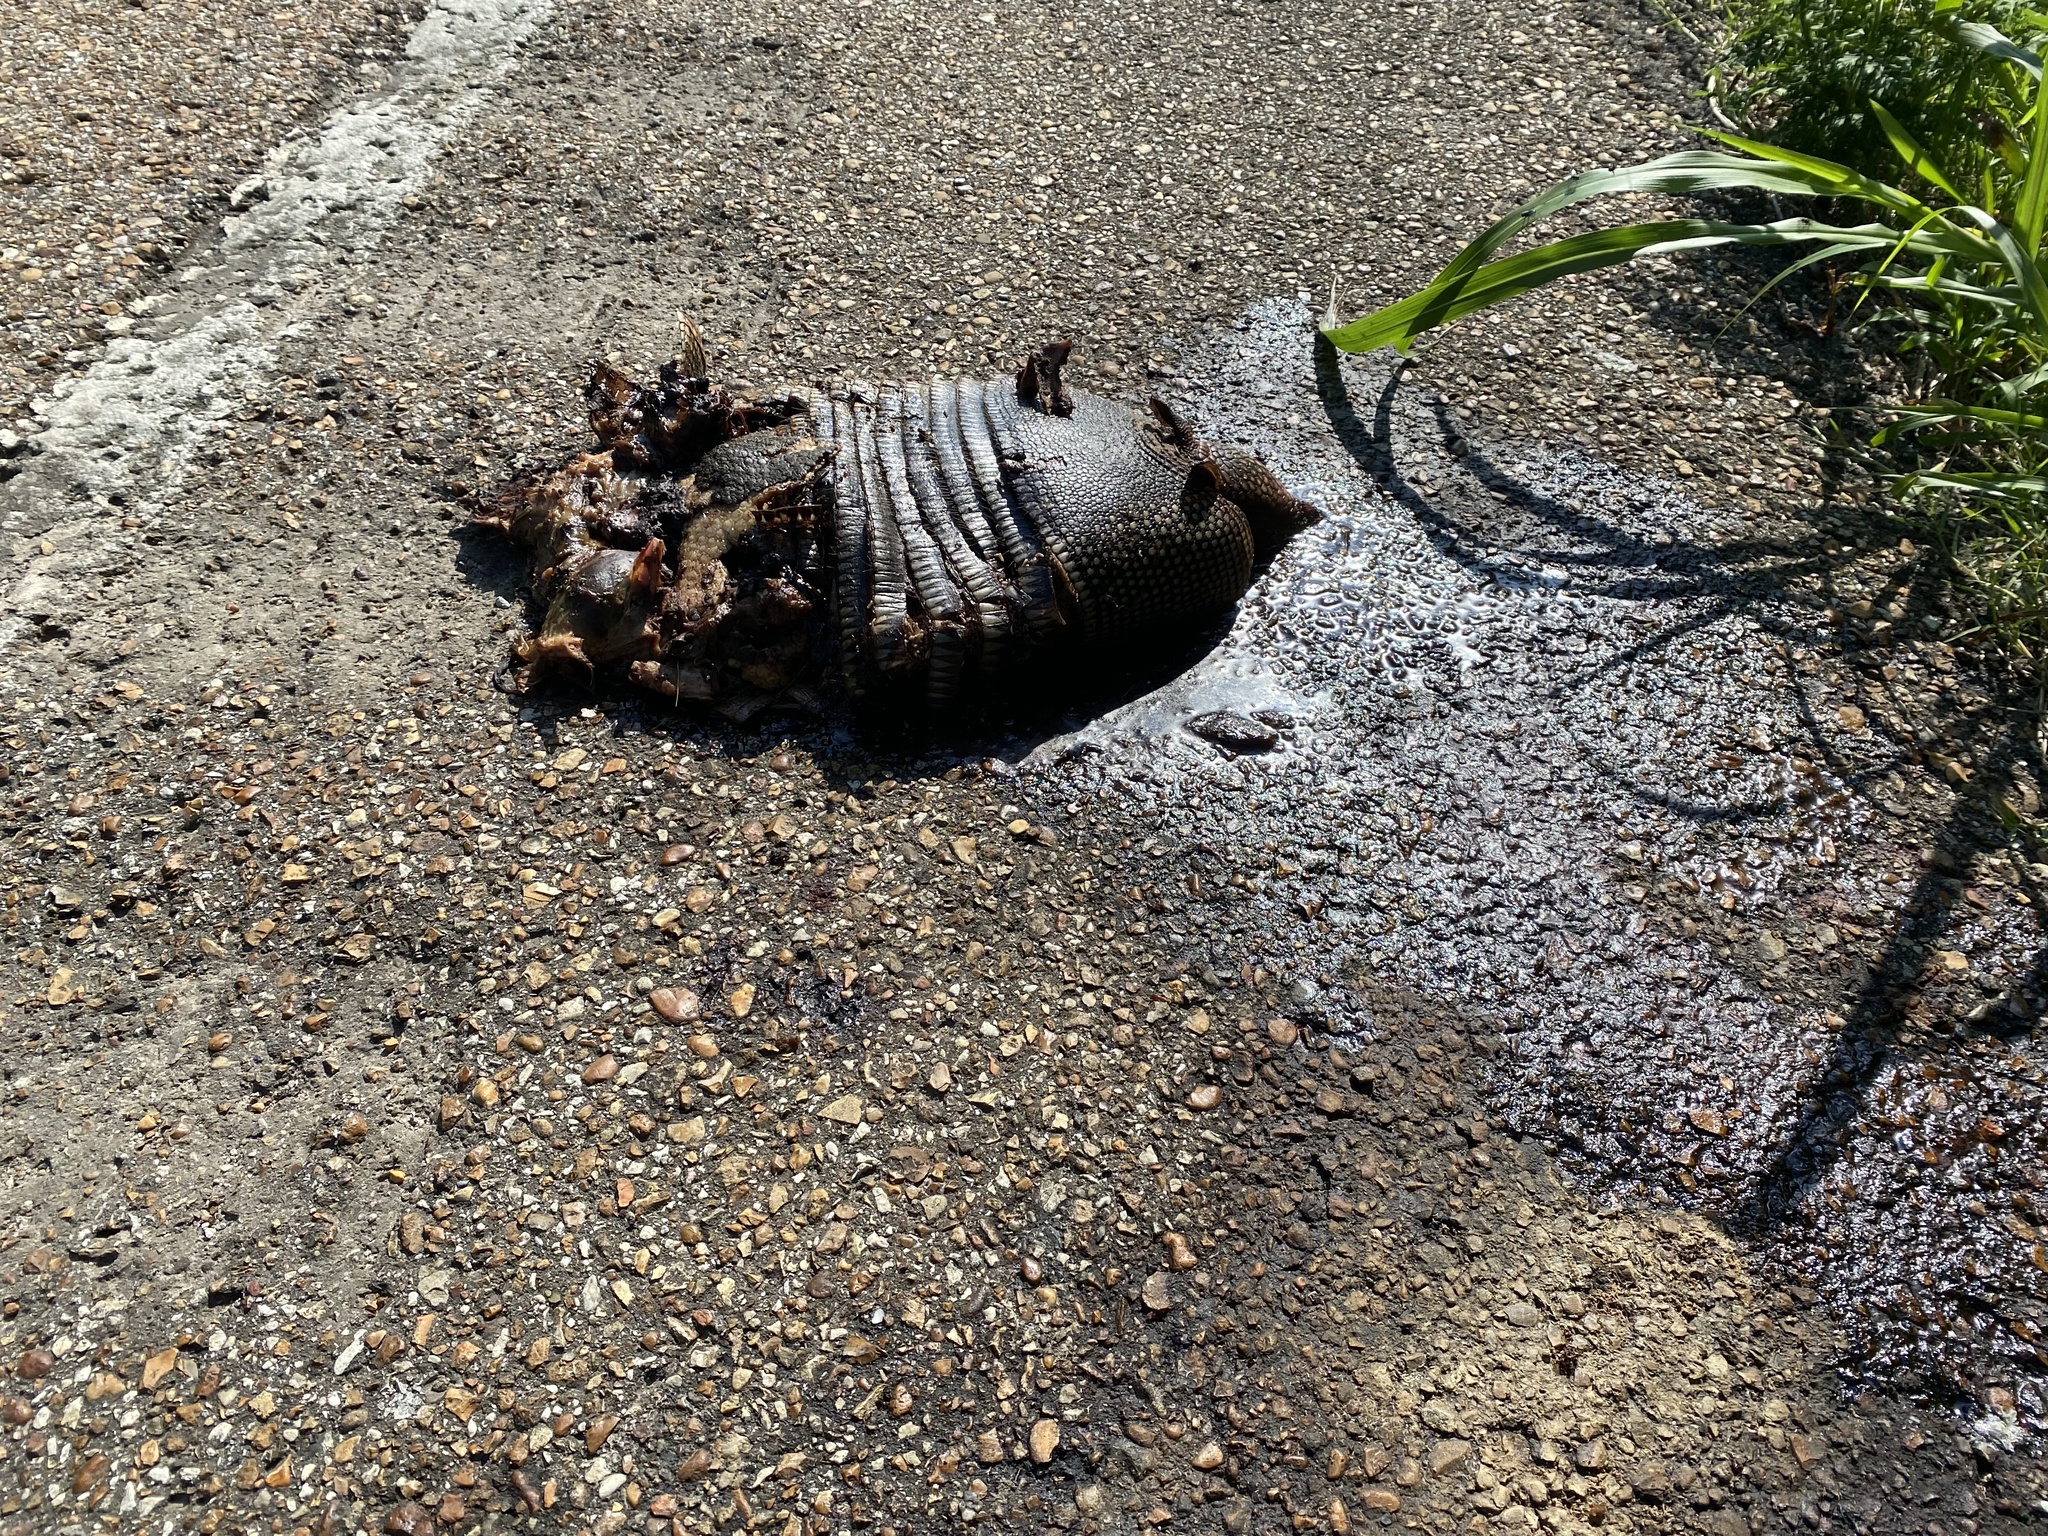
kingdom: Animalia
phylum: Chordata
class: Mammalia
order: Cingulata
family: Dasypodidae
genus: Dasypus
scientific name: Dasypus novemcinctus
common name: Nine-banded armadillo
